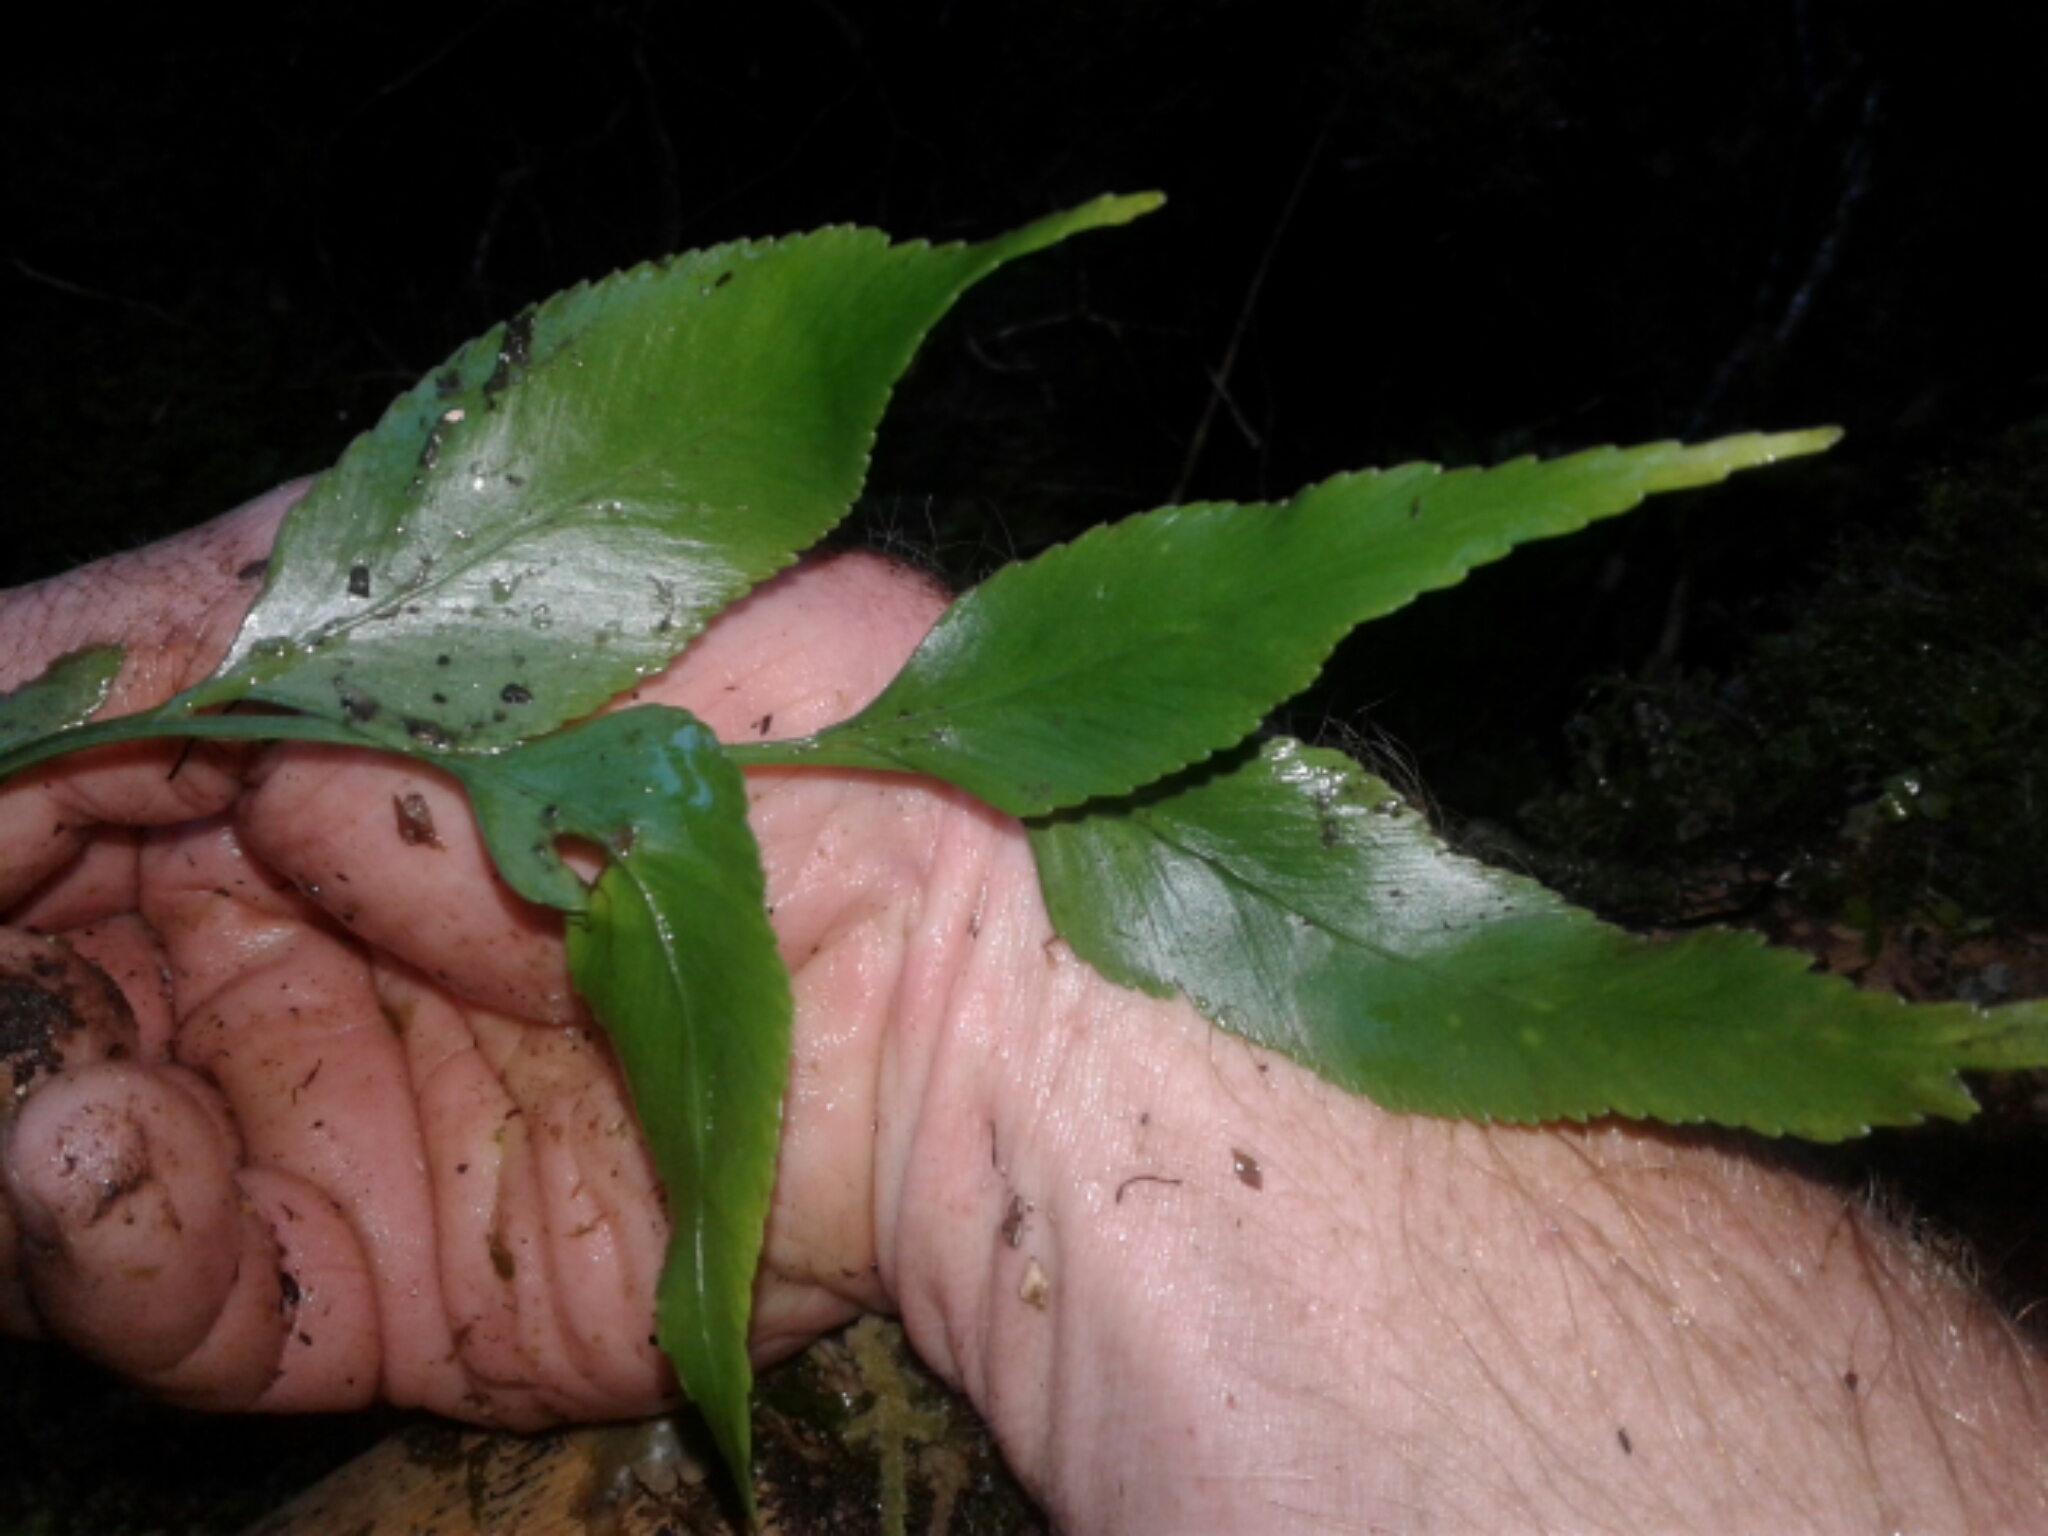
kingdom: Plantae
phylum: Tracheophyta
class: Polypodiopsida
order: Polypodiales
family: Aspleniaceae
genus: Asplenium
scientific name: Asplenium
